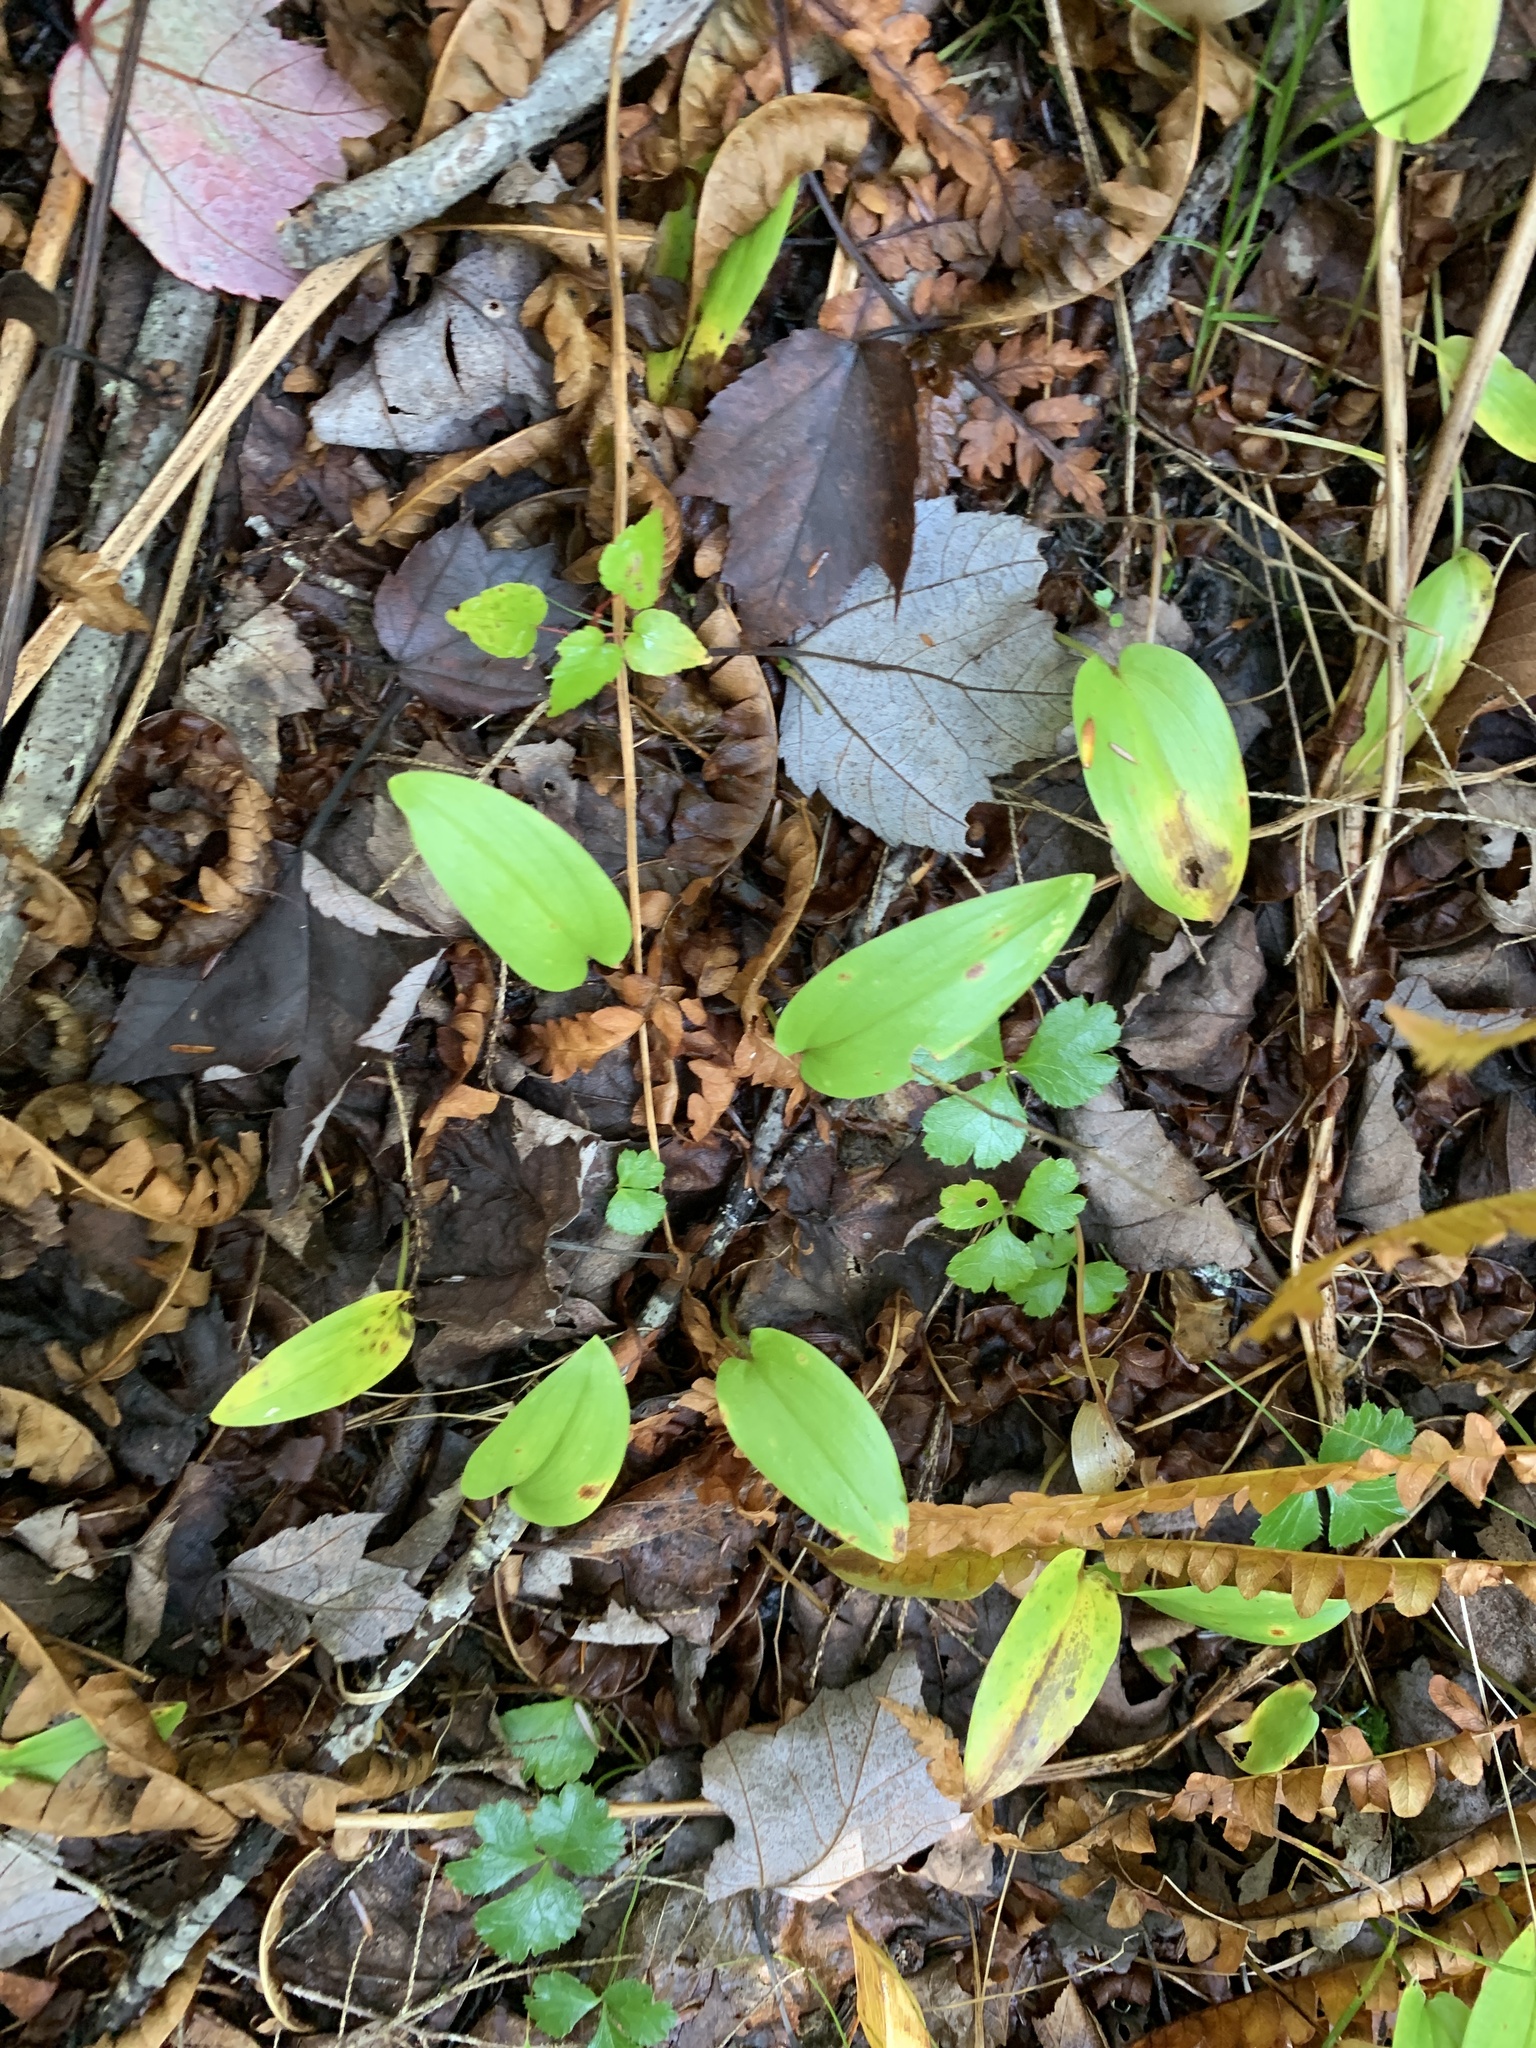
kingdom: Plantae
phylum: Tracheophyta
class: Liliopsida
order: Asparagales
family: Asparagaceae
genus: Maianthemum
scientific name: Maianthemum canadense
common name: False lily-of-the-valley
